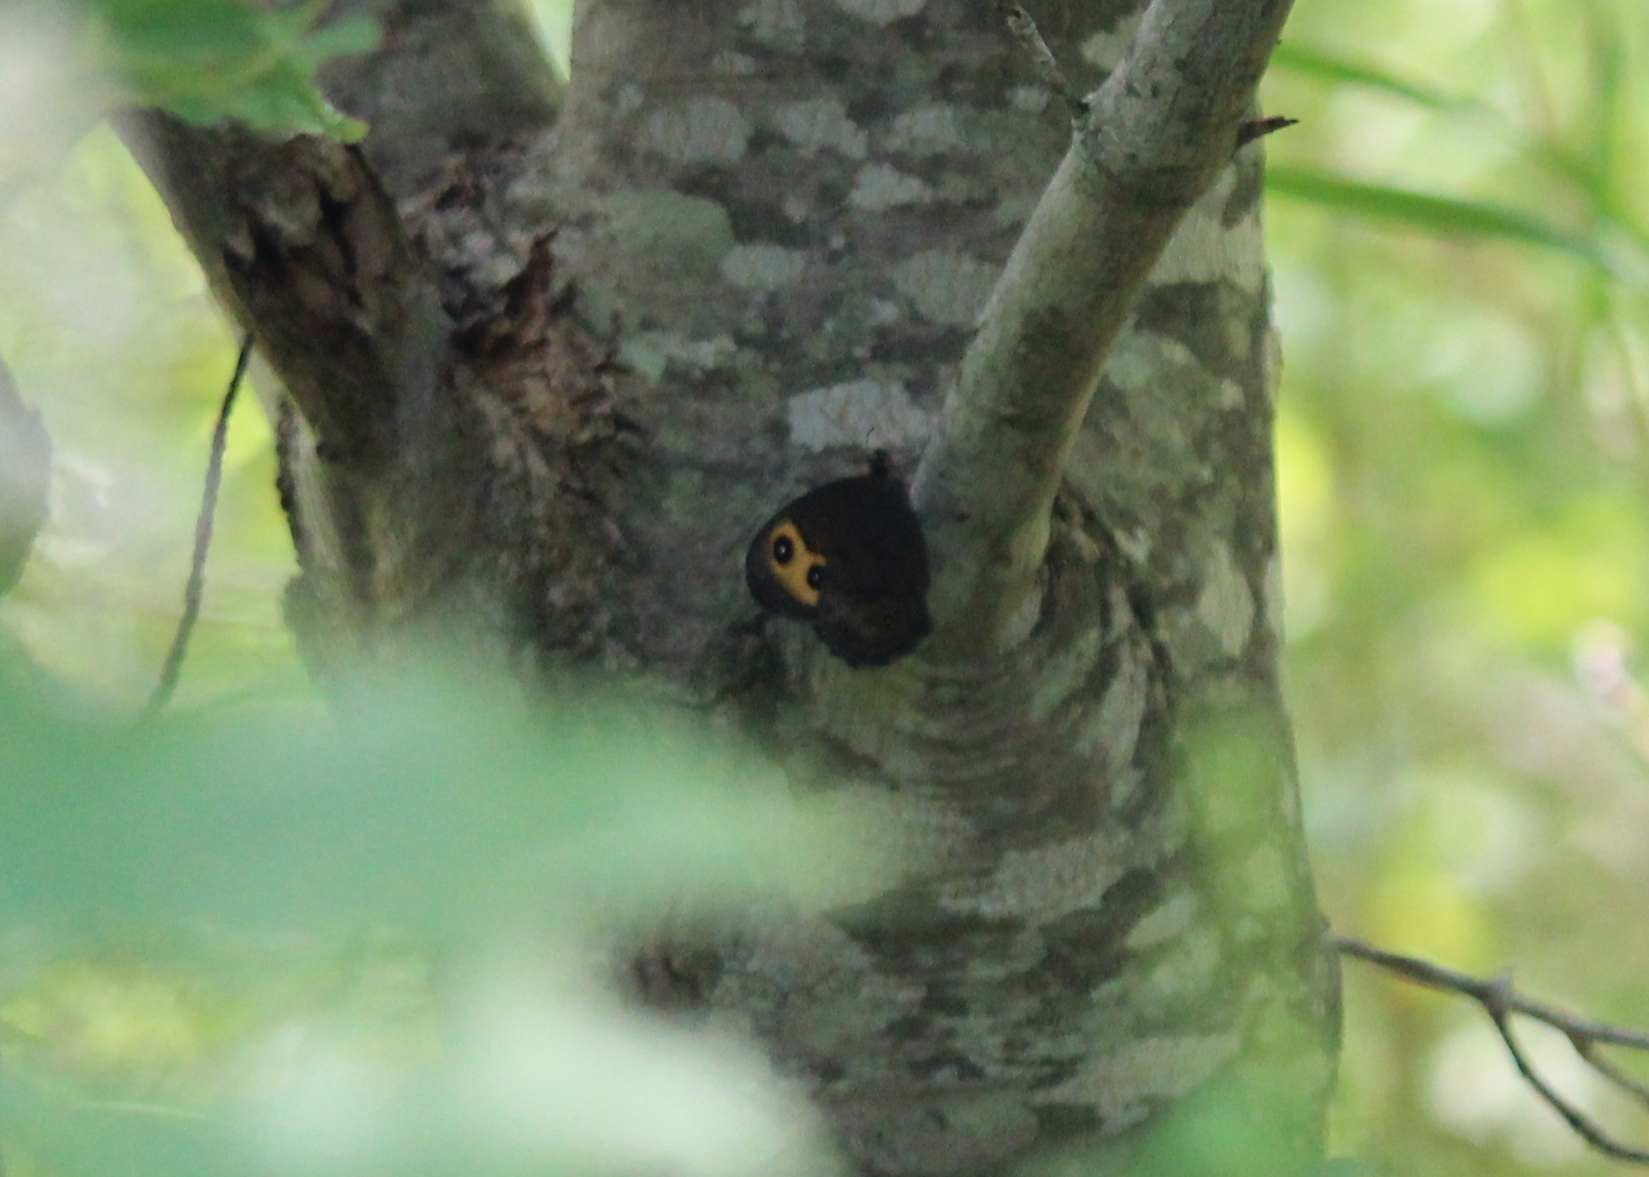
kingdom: Animalia
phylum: Arthropoda
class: Insecta
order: Lepidoptera
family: Nymphalidae
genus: Cercyonis
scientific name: Cercyonis pegala
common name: Common wood-nymph
